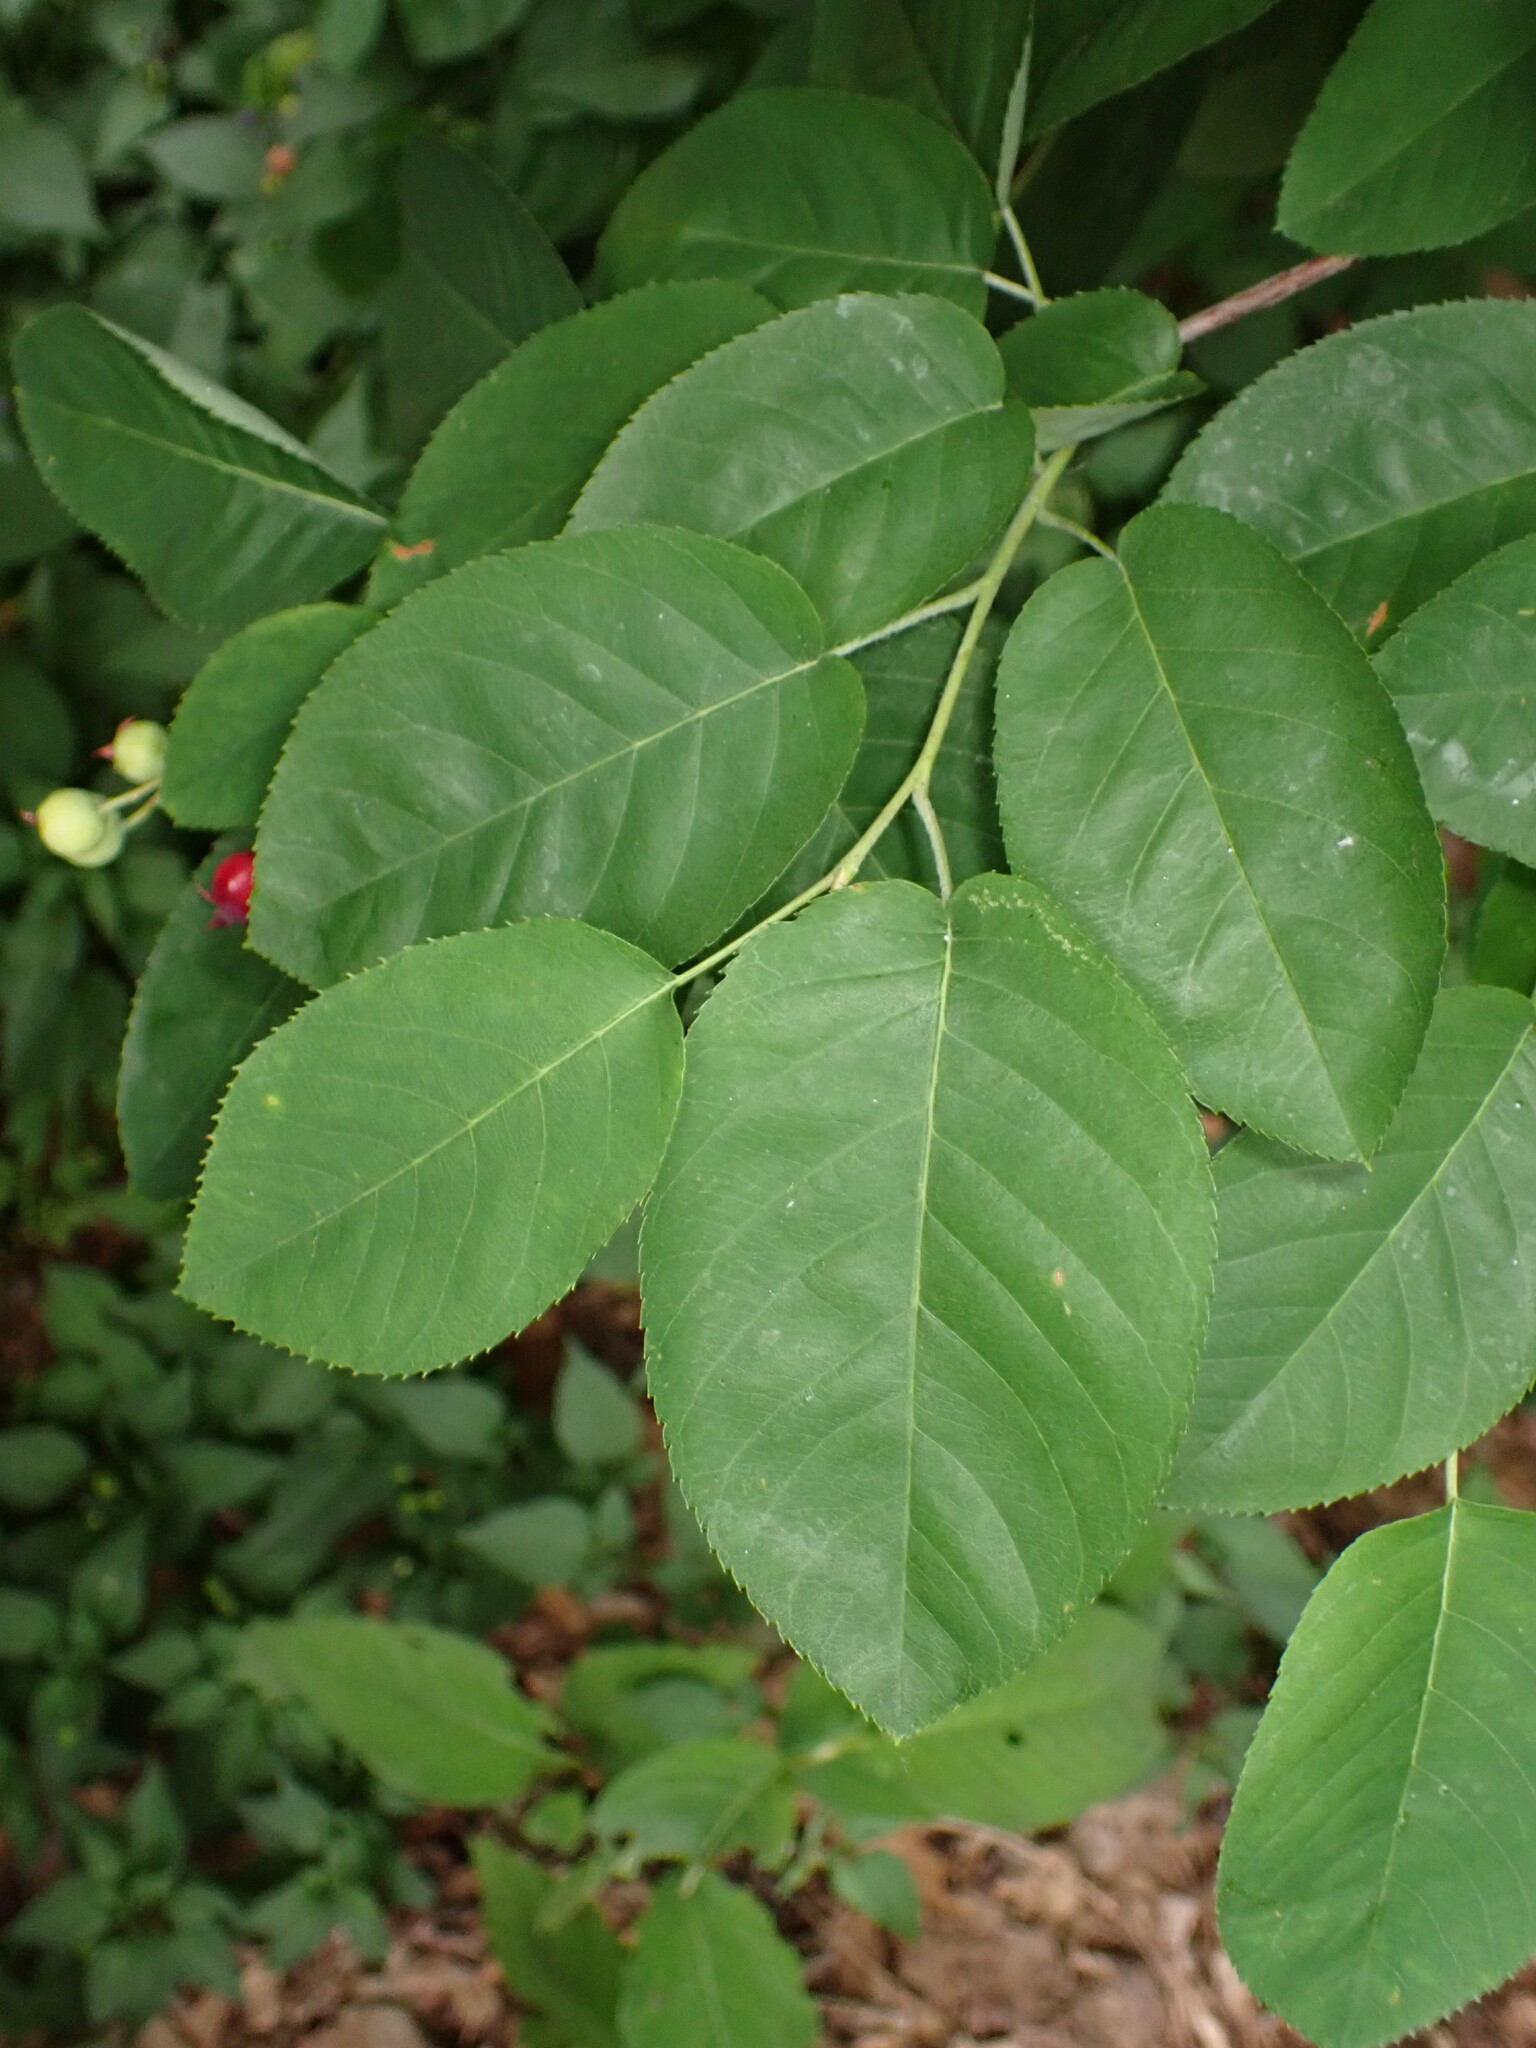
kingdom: Plantae
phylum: Tracheophyta
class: Magnoliopsida
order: Rosales
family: Rosaceae
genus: Amelanchier
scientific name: Amelanchier arborea
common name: Downy serviceberry
